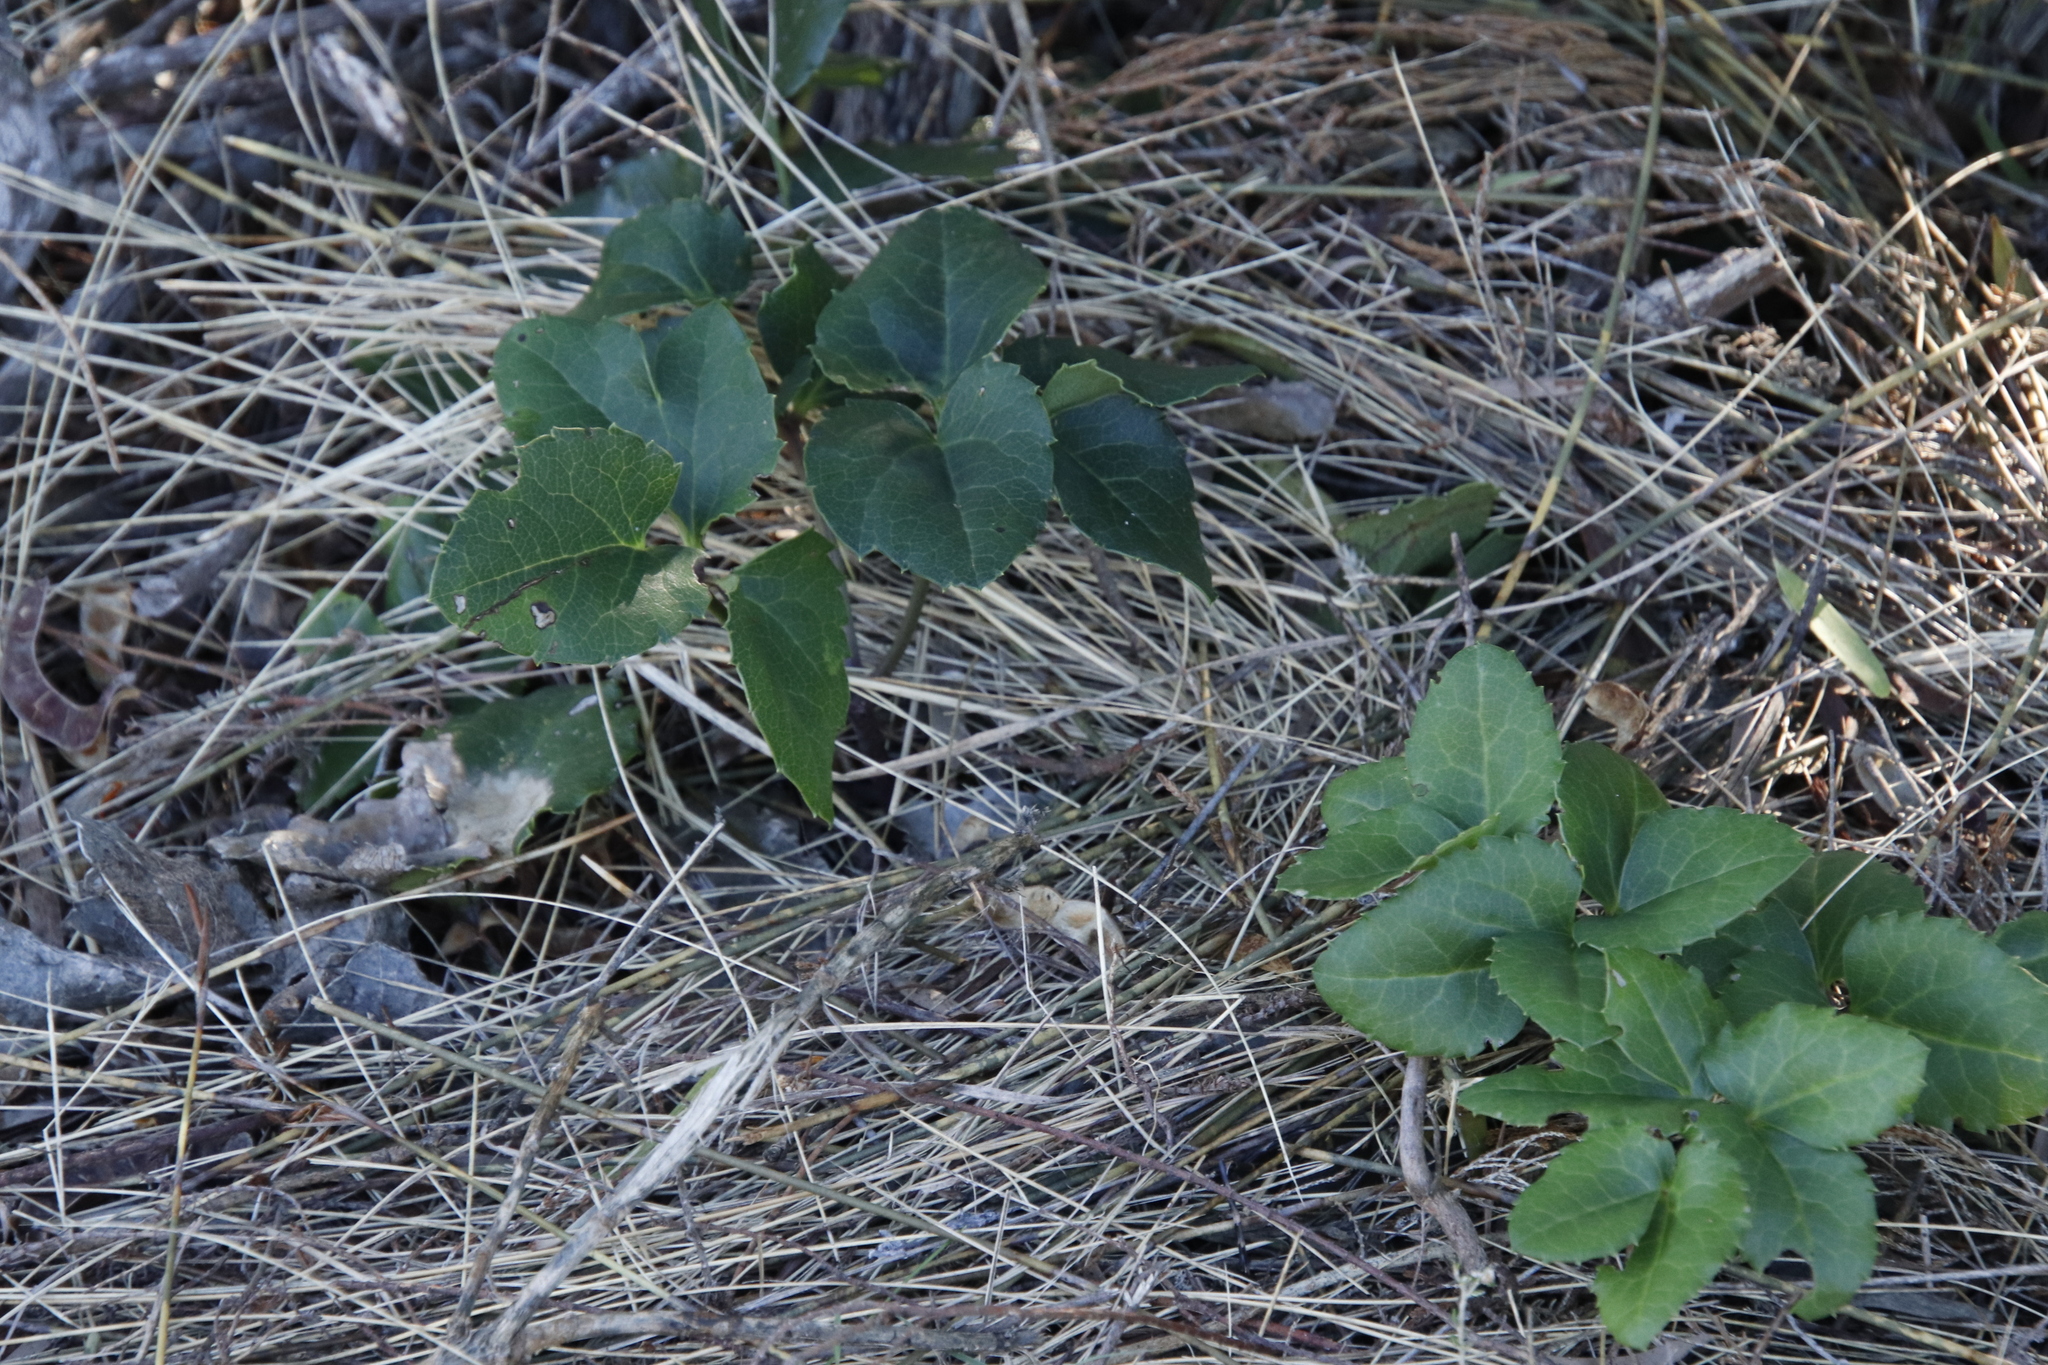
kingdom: Plantae
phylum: Tracheophyta
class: Magnoliopsida
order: Ranunculales
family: Ranunculaceae
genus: Knowltonia
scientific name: Knowltonia vesicatoria
